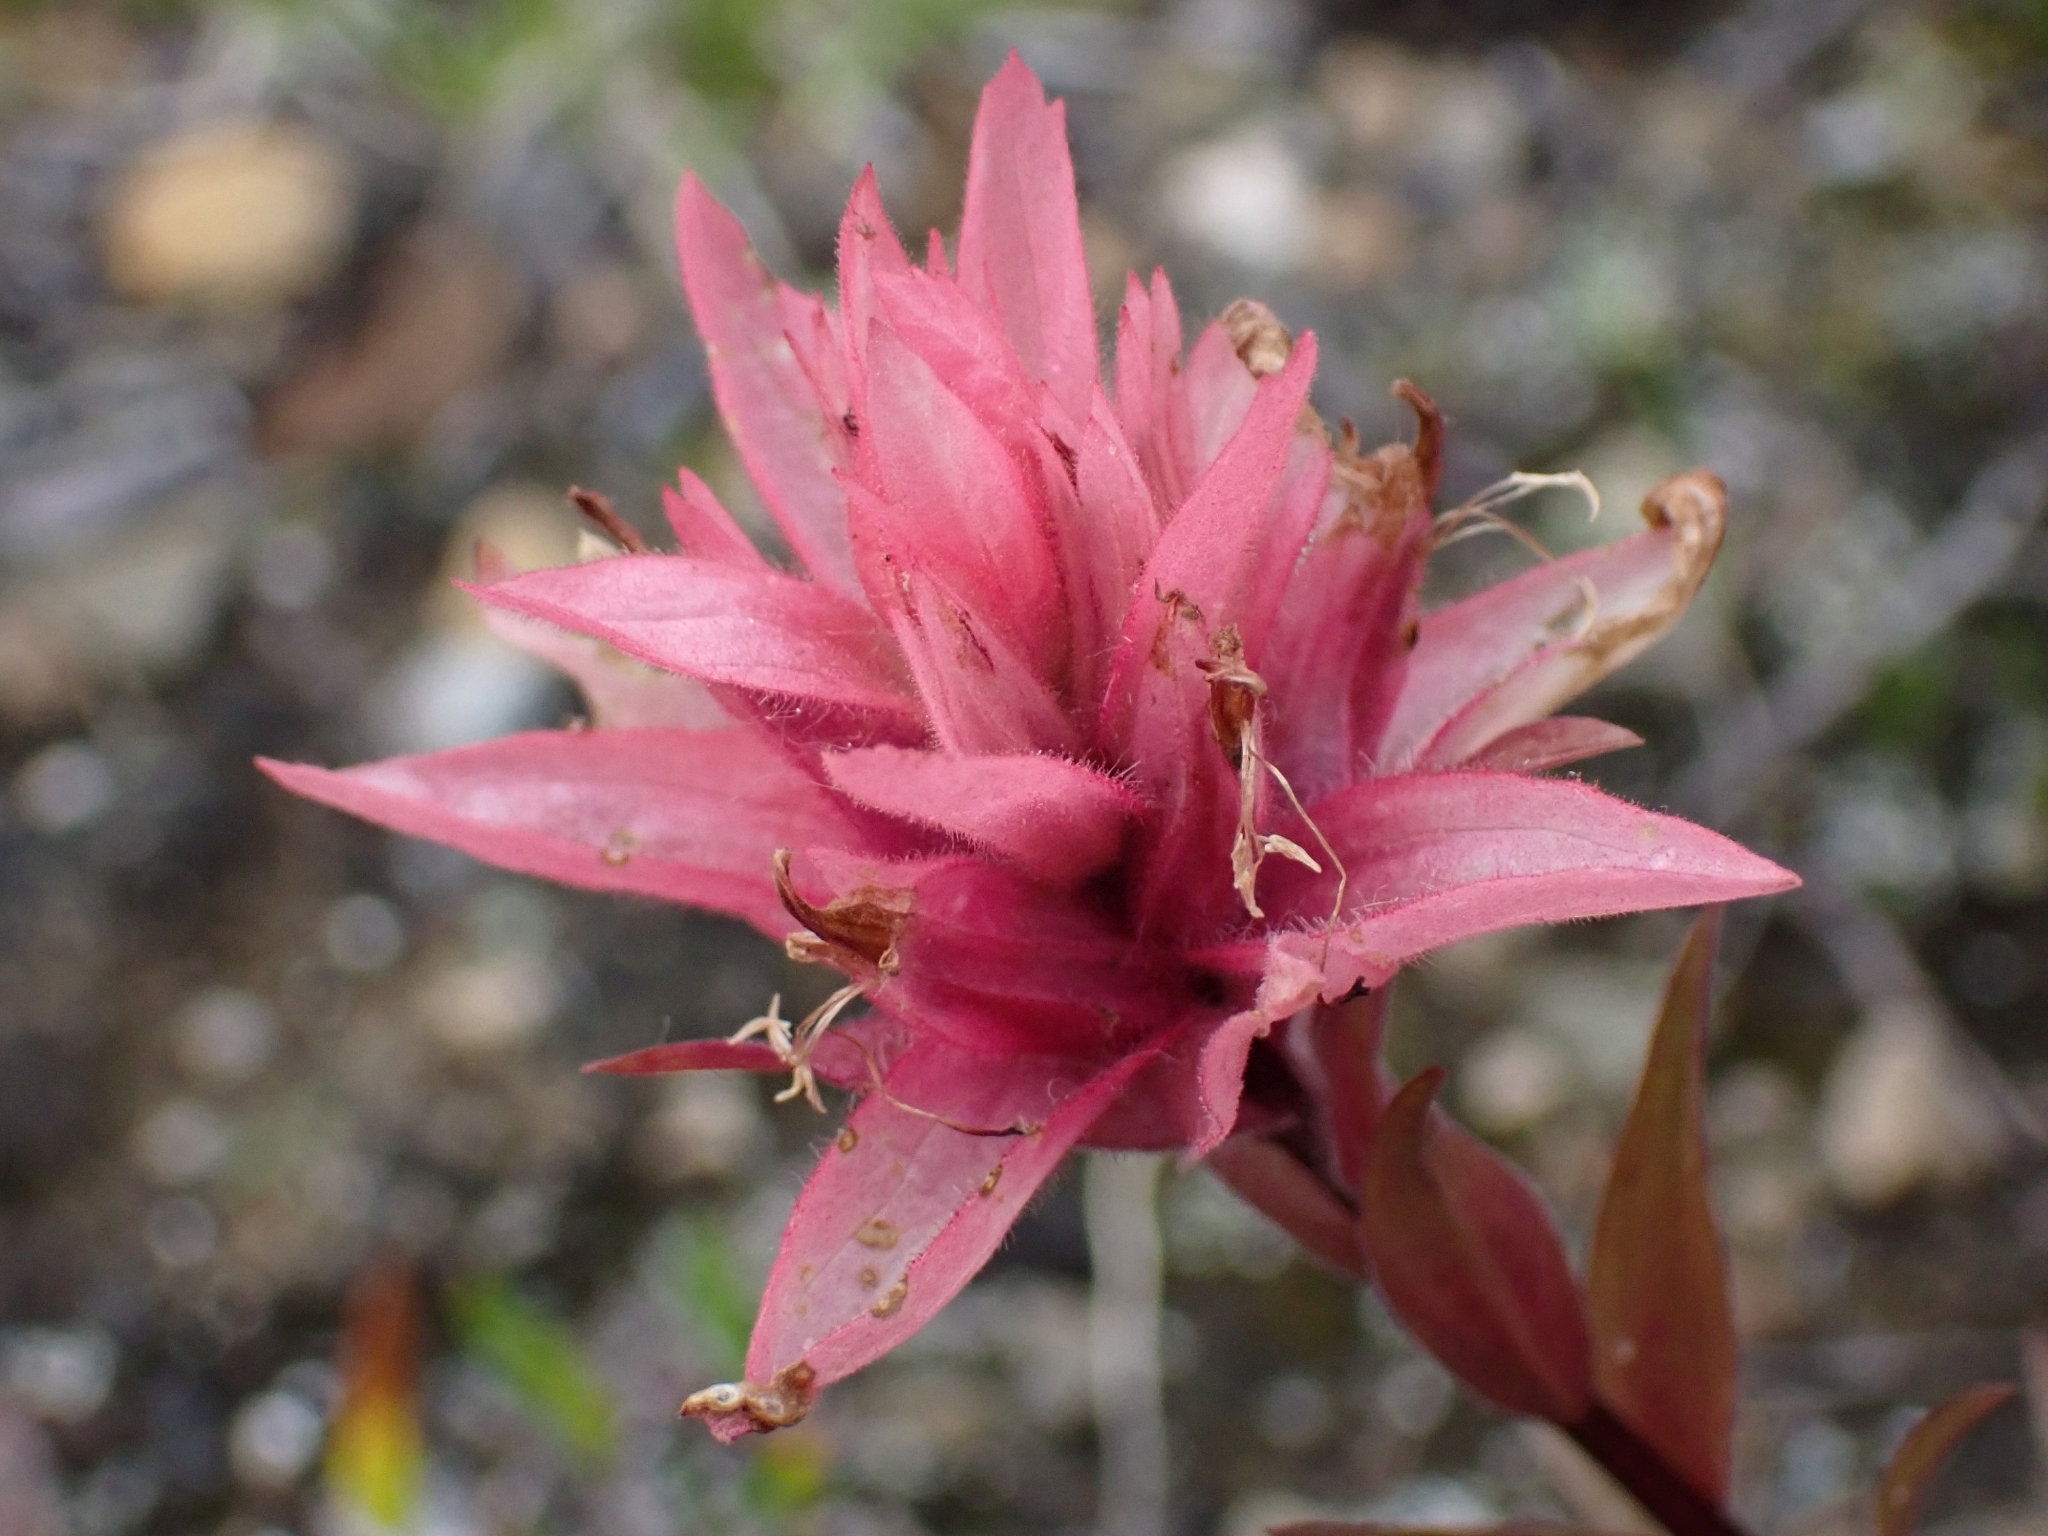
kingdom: Plantae
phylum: Tracheophyta
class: Magnoliopsida
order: Lamiales
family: Orobanchaceae
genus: Castilleja
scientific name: Castilleja miniata
